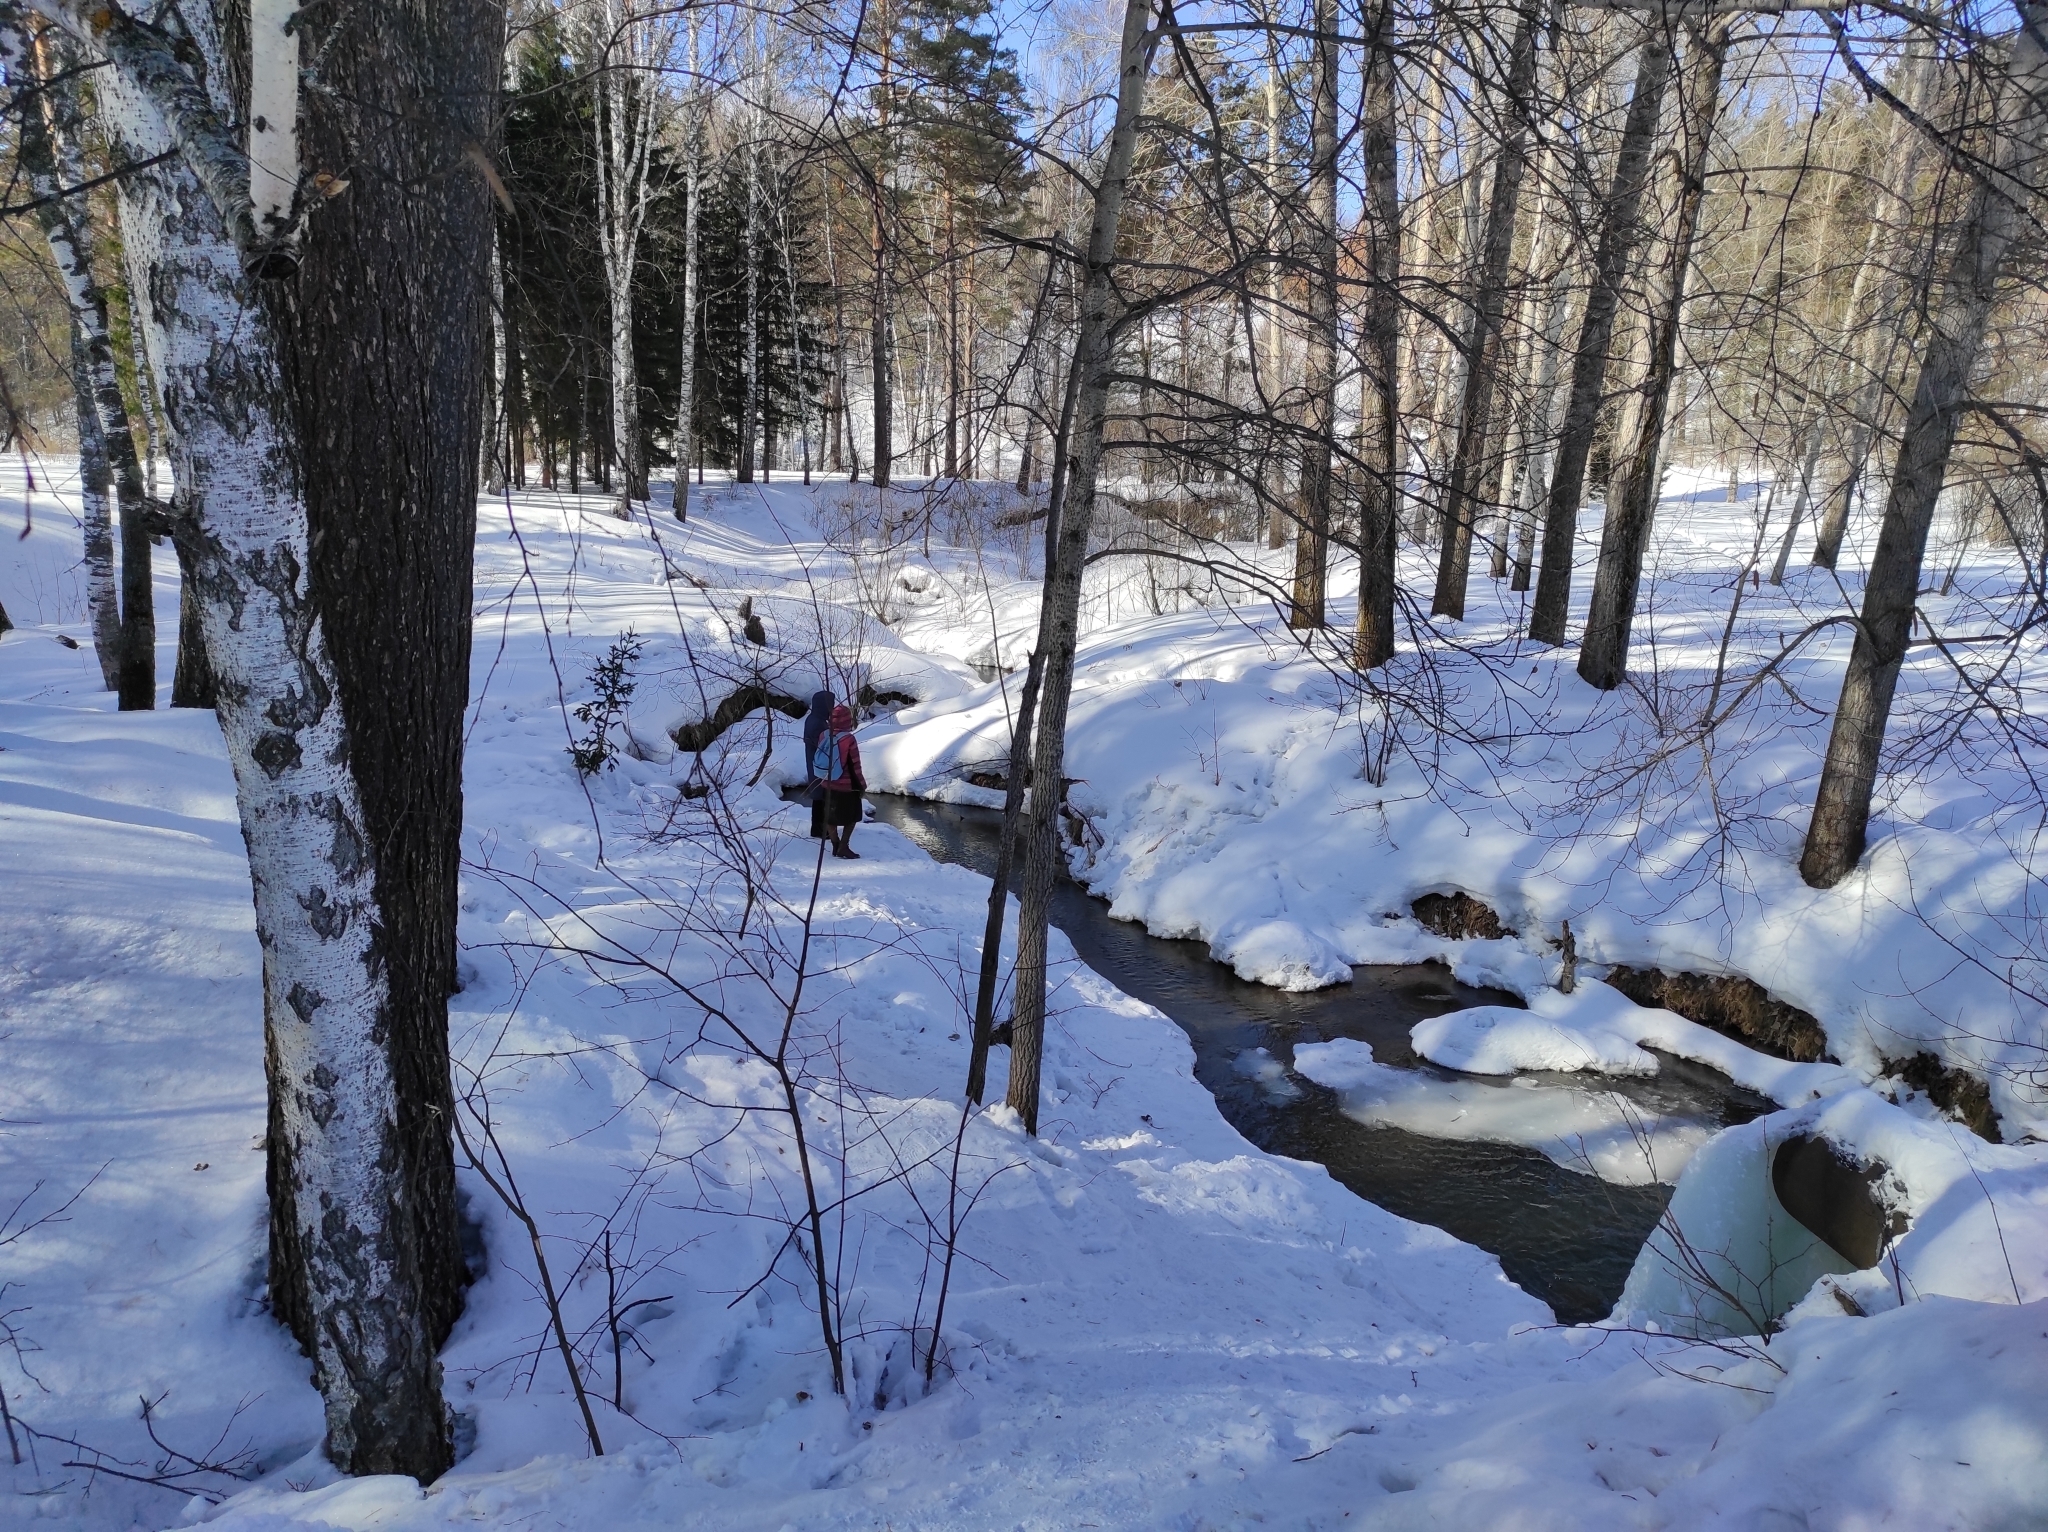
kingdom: Plantae
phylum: Tracheophyta
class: Pinopsida
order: Pinales
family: Pinaceae
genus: Pinus
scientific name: Pinus sylvestris
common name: Scots pine
